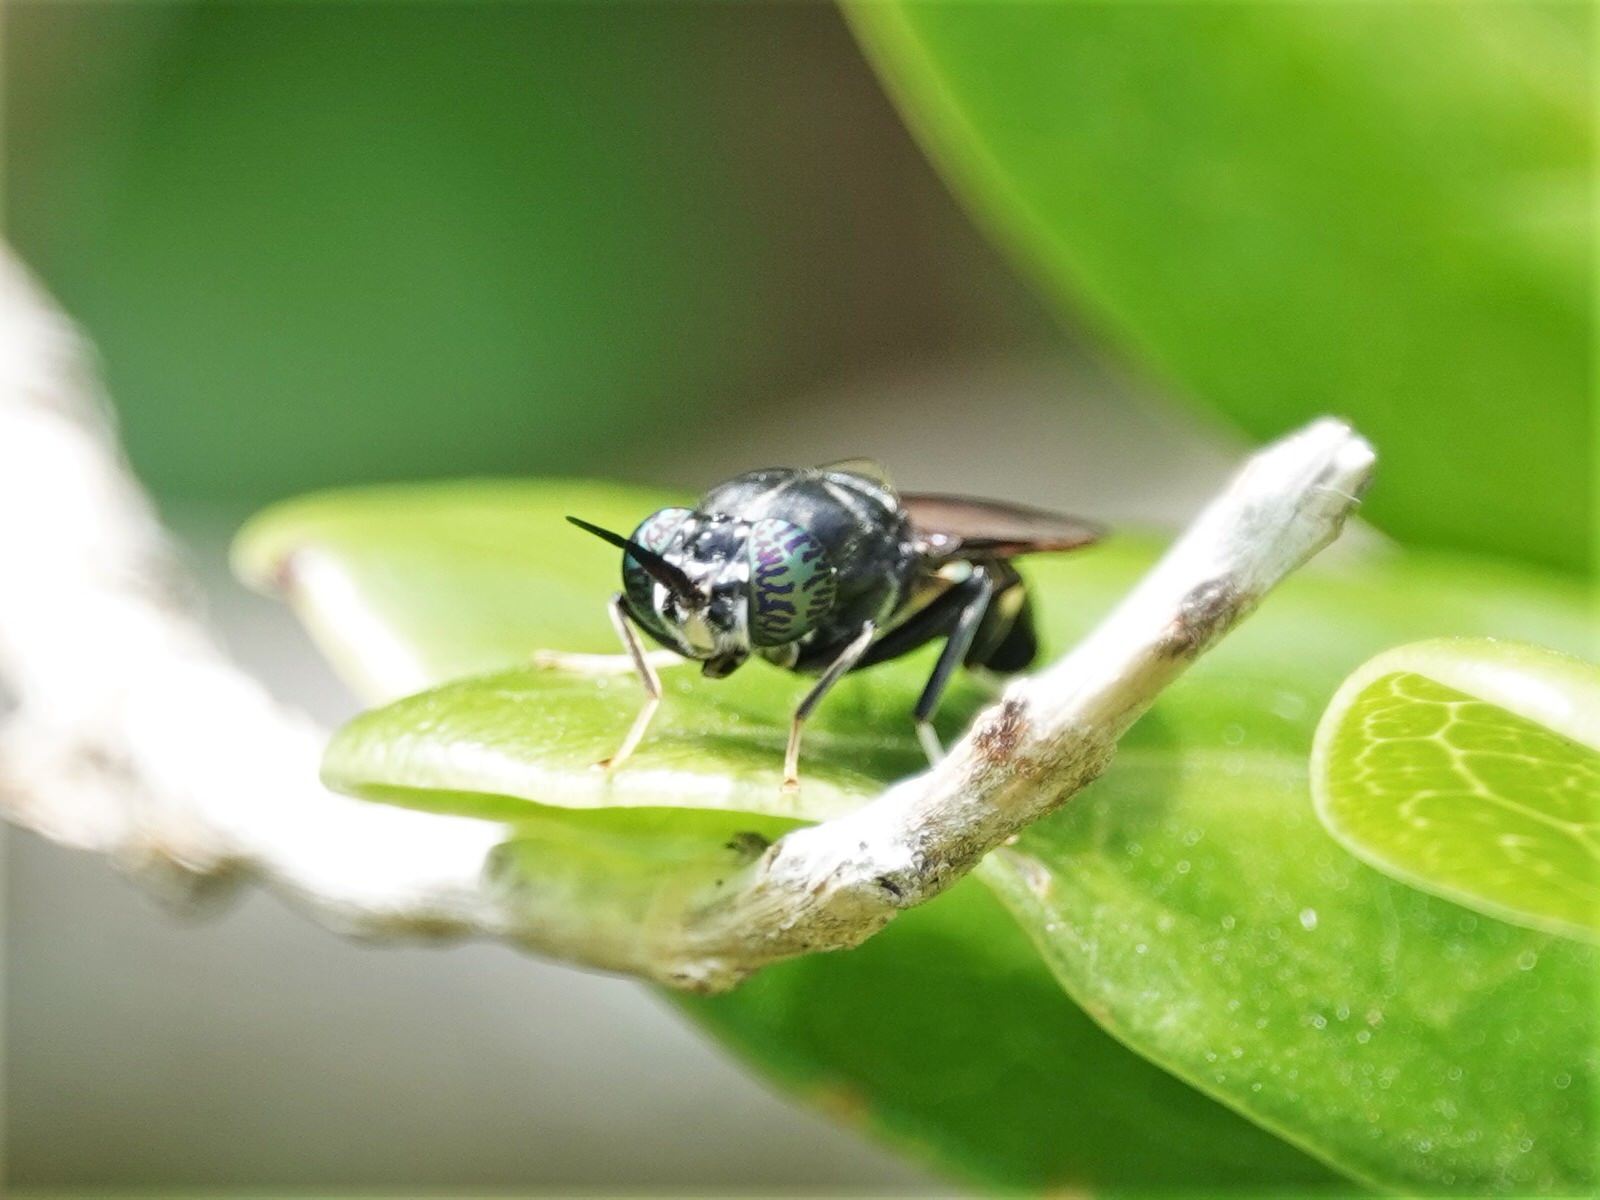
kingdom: Animalia
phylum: Arthropoda
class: Insecta
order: Diptera
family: Stratiomyidae
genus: Hermetia
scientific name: Hermetia illucens
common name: Black soldier fly
